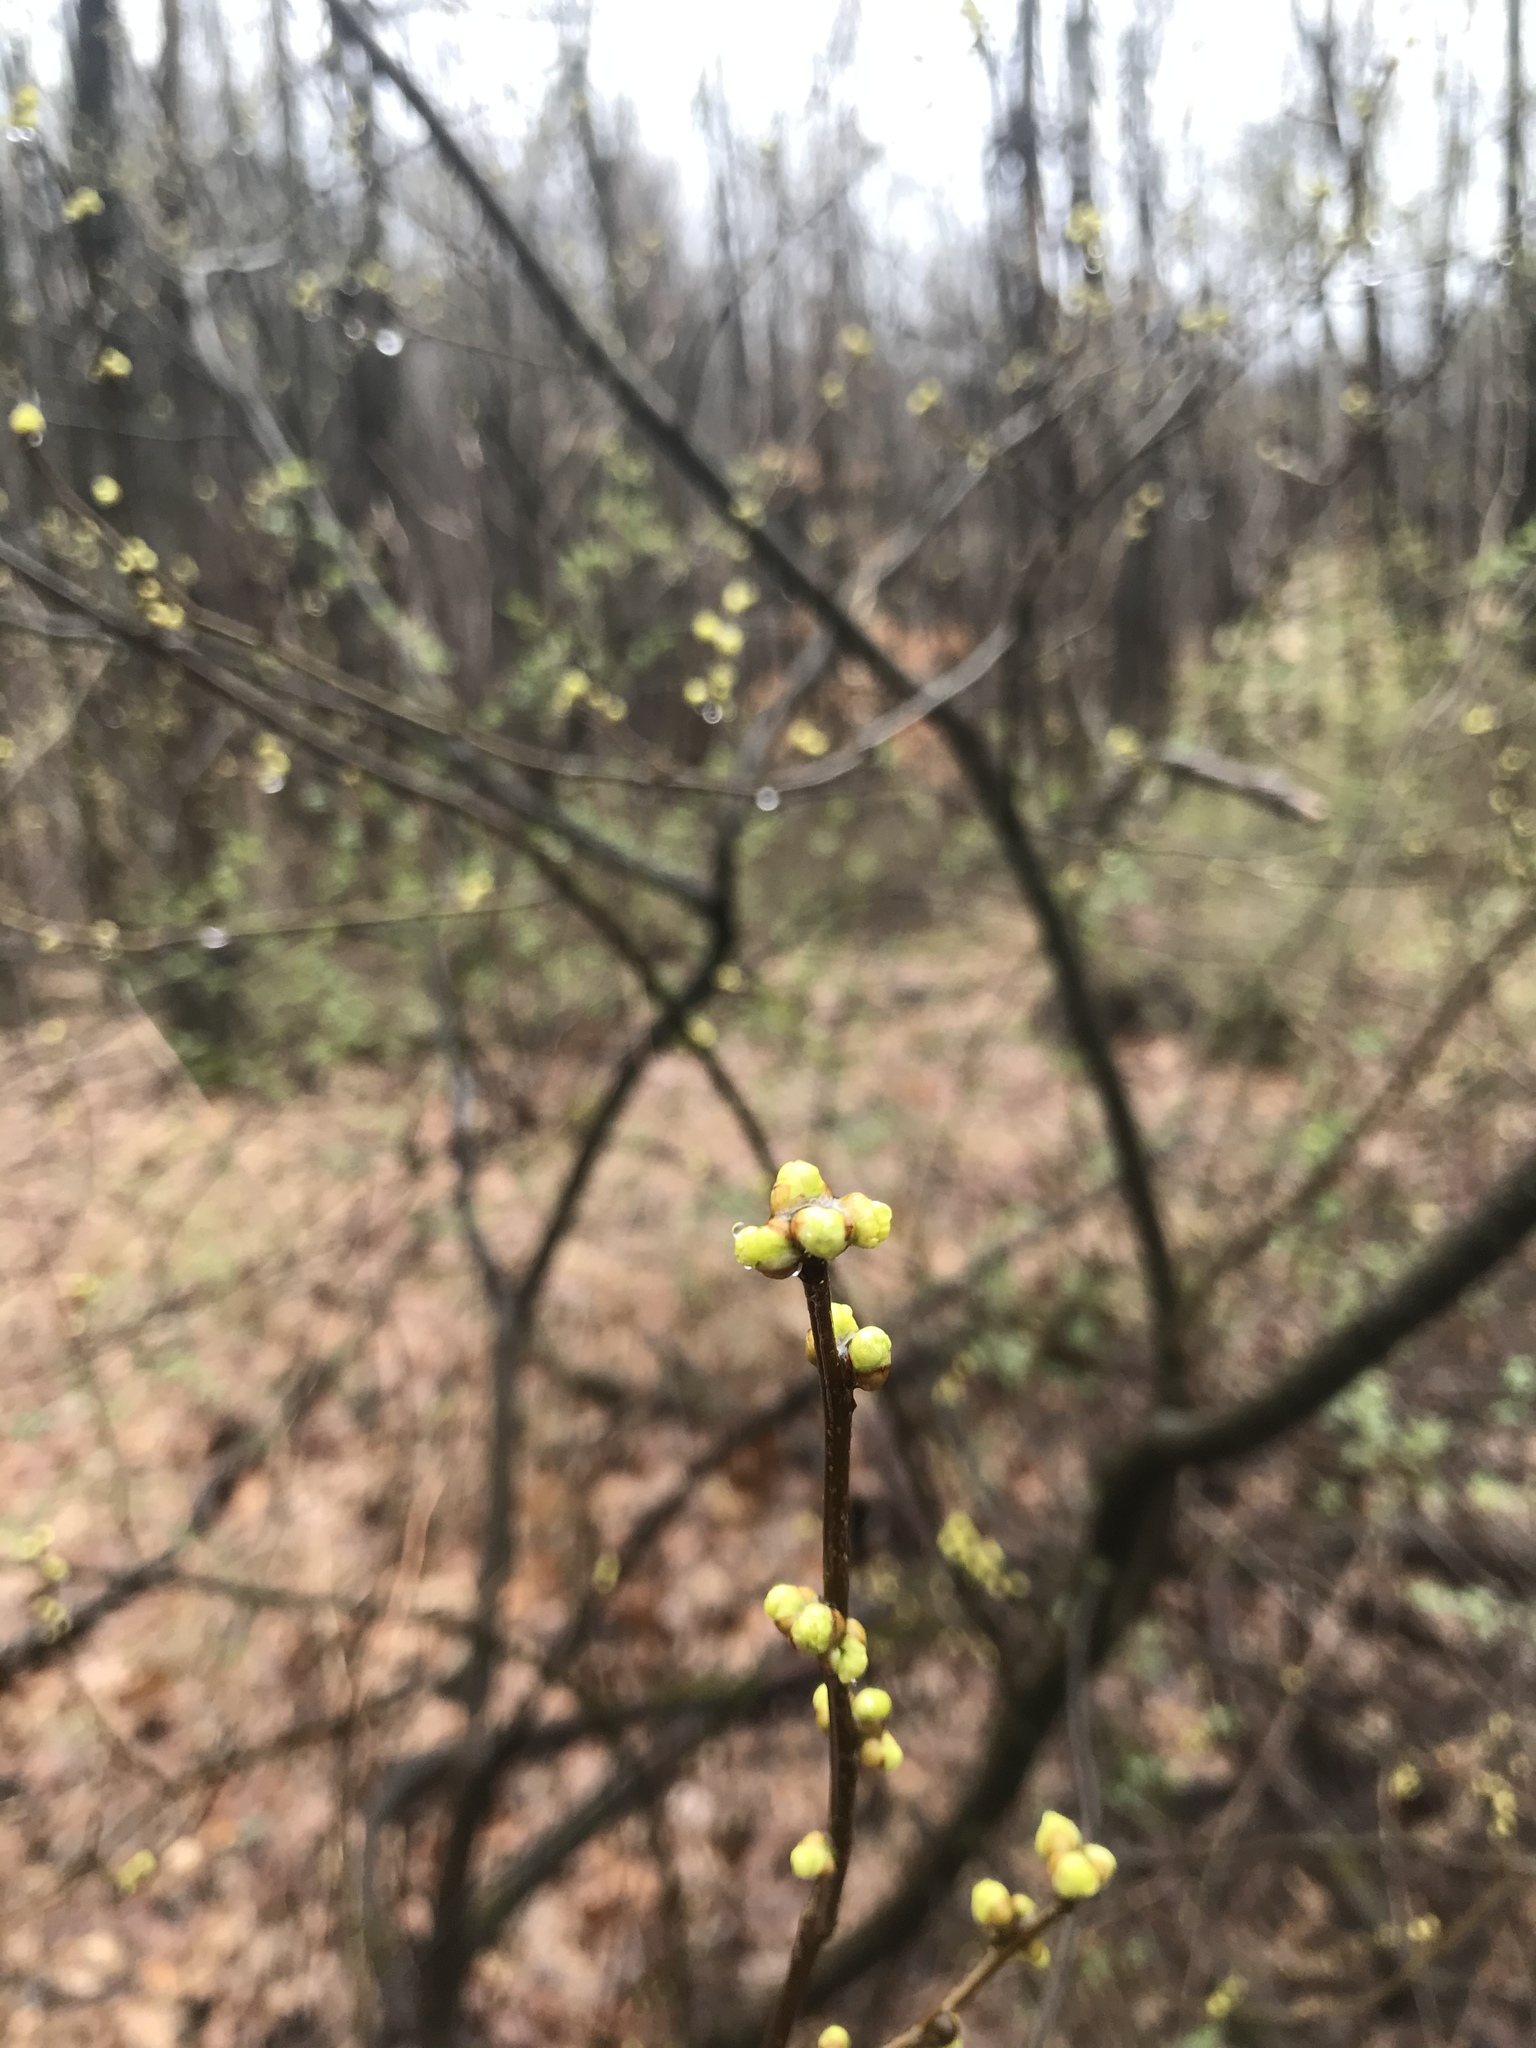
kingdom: Plantae
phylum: Tracheophyta
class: Magnoliopsida
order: Laurales
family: Lauraceae
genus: Lindera
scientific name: Lindera benzoin
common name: Spicebush
